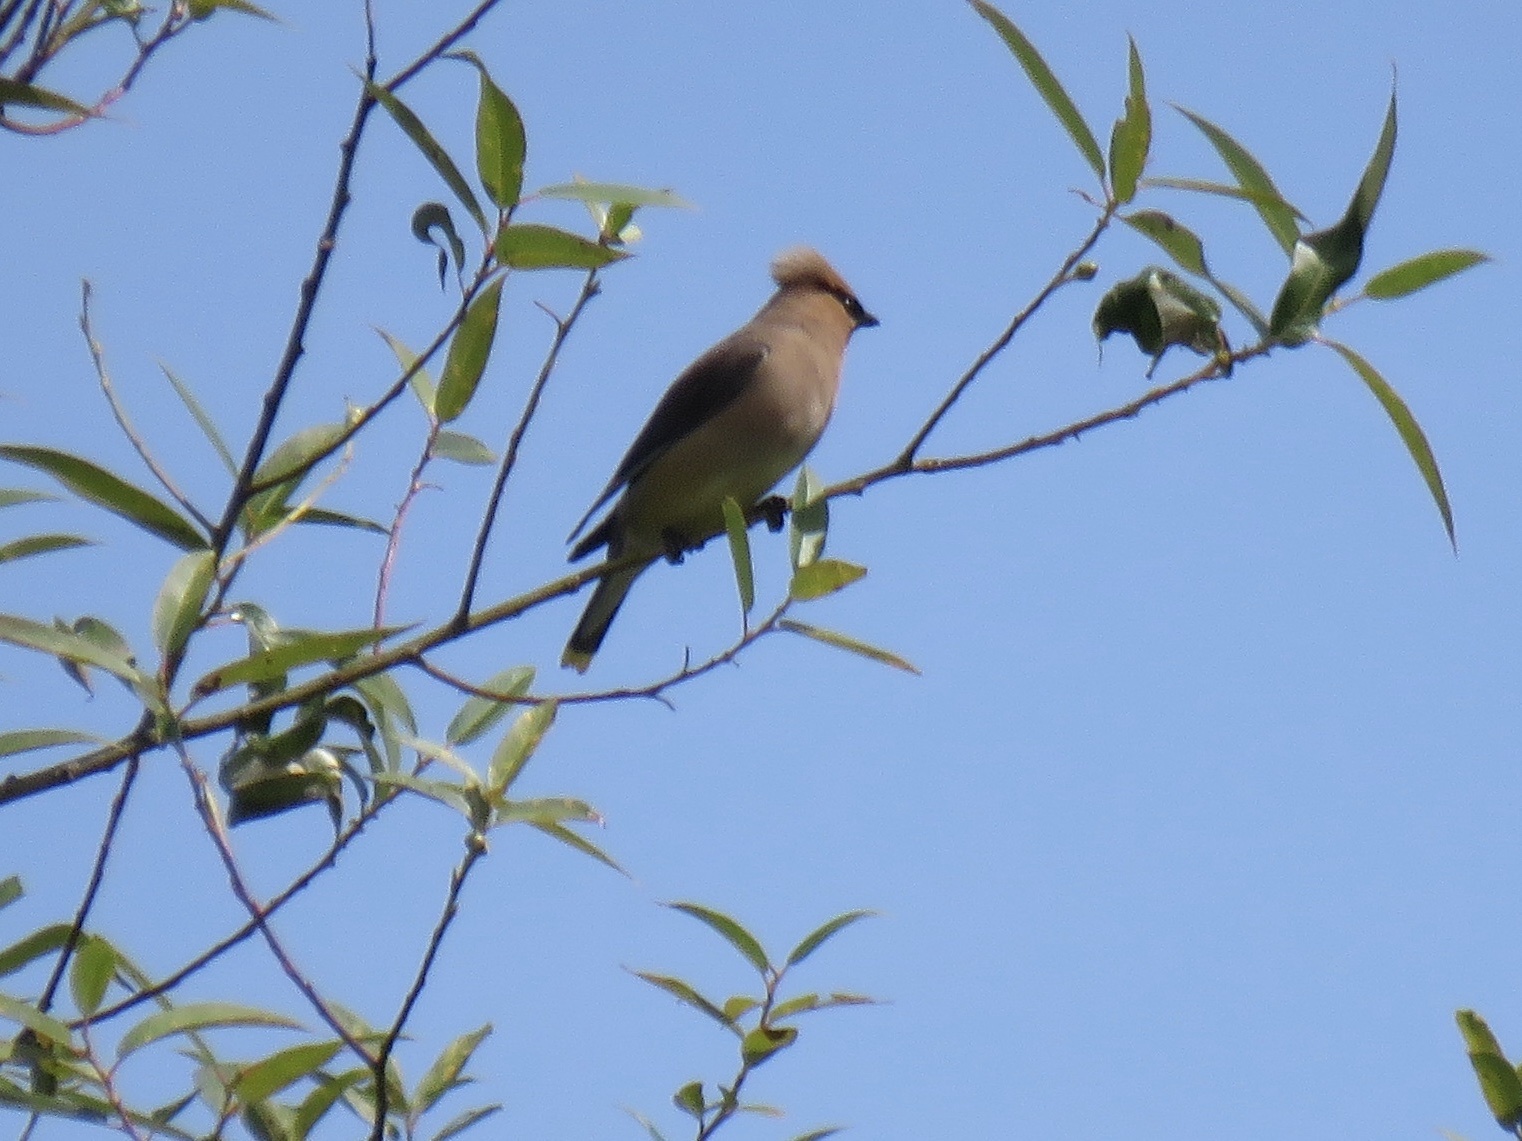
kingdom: Animalia
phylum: Chordata
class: Aves
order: Passeriformes
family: Bombycillidae
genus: Bombycilla
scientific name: Bombycilla cedrorum
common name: Cedar waxwing
